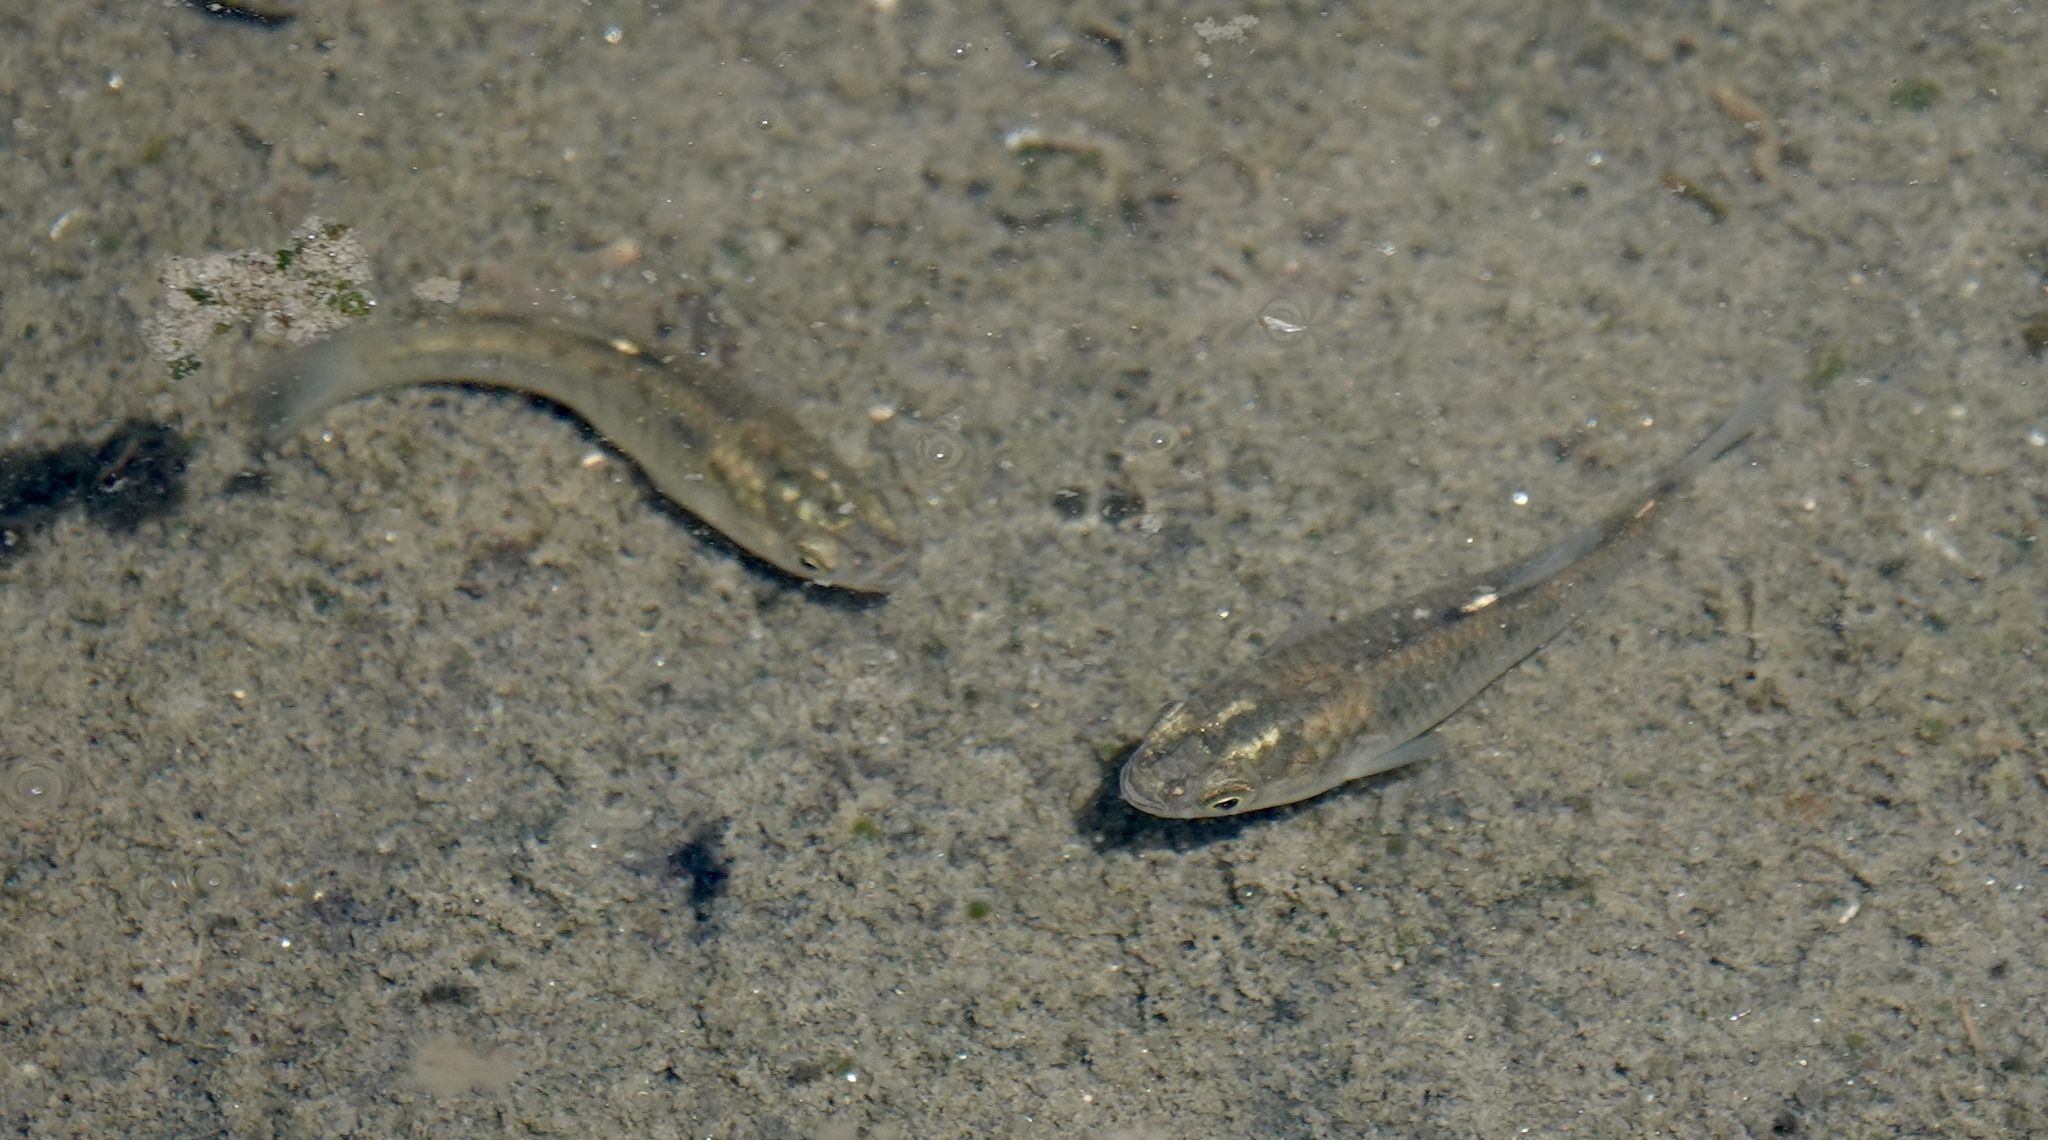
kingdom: Animalia
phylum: Chordata
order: Cyprinodontiformes
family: Fundulidae
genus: Fundulus
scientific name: Fundulus parvipinnis
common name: California killifish
